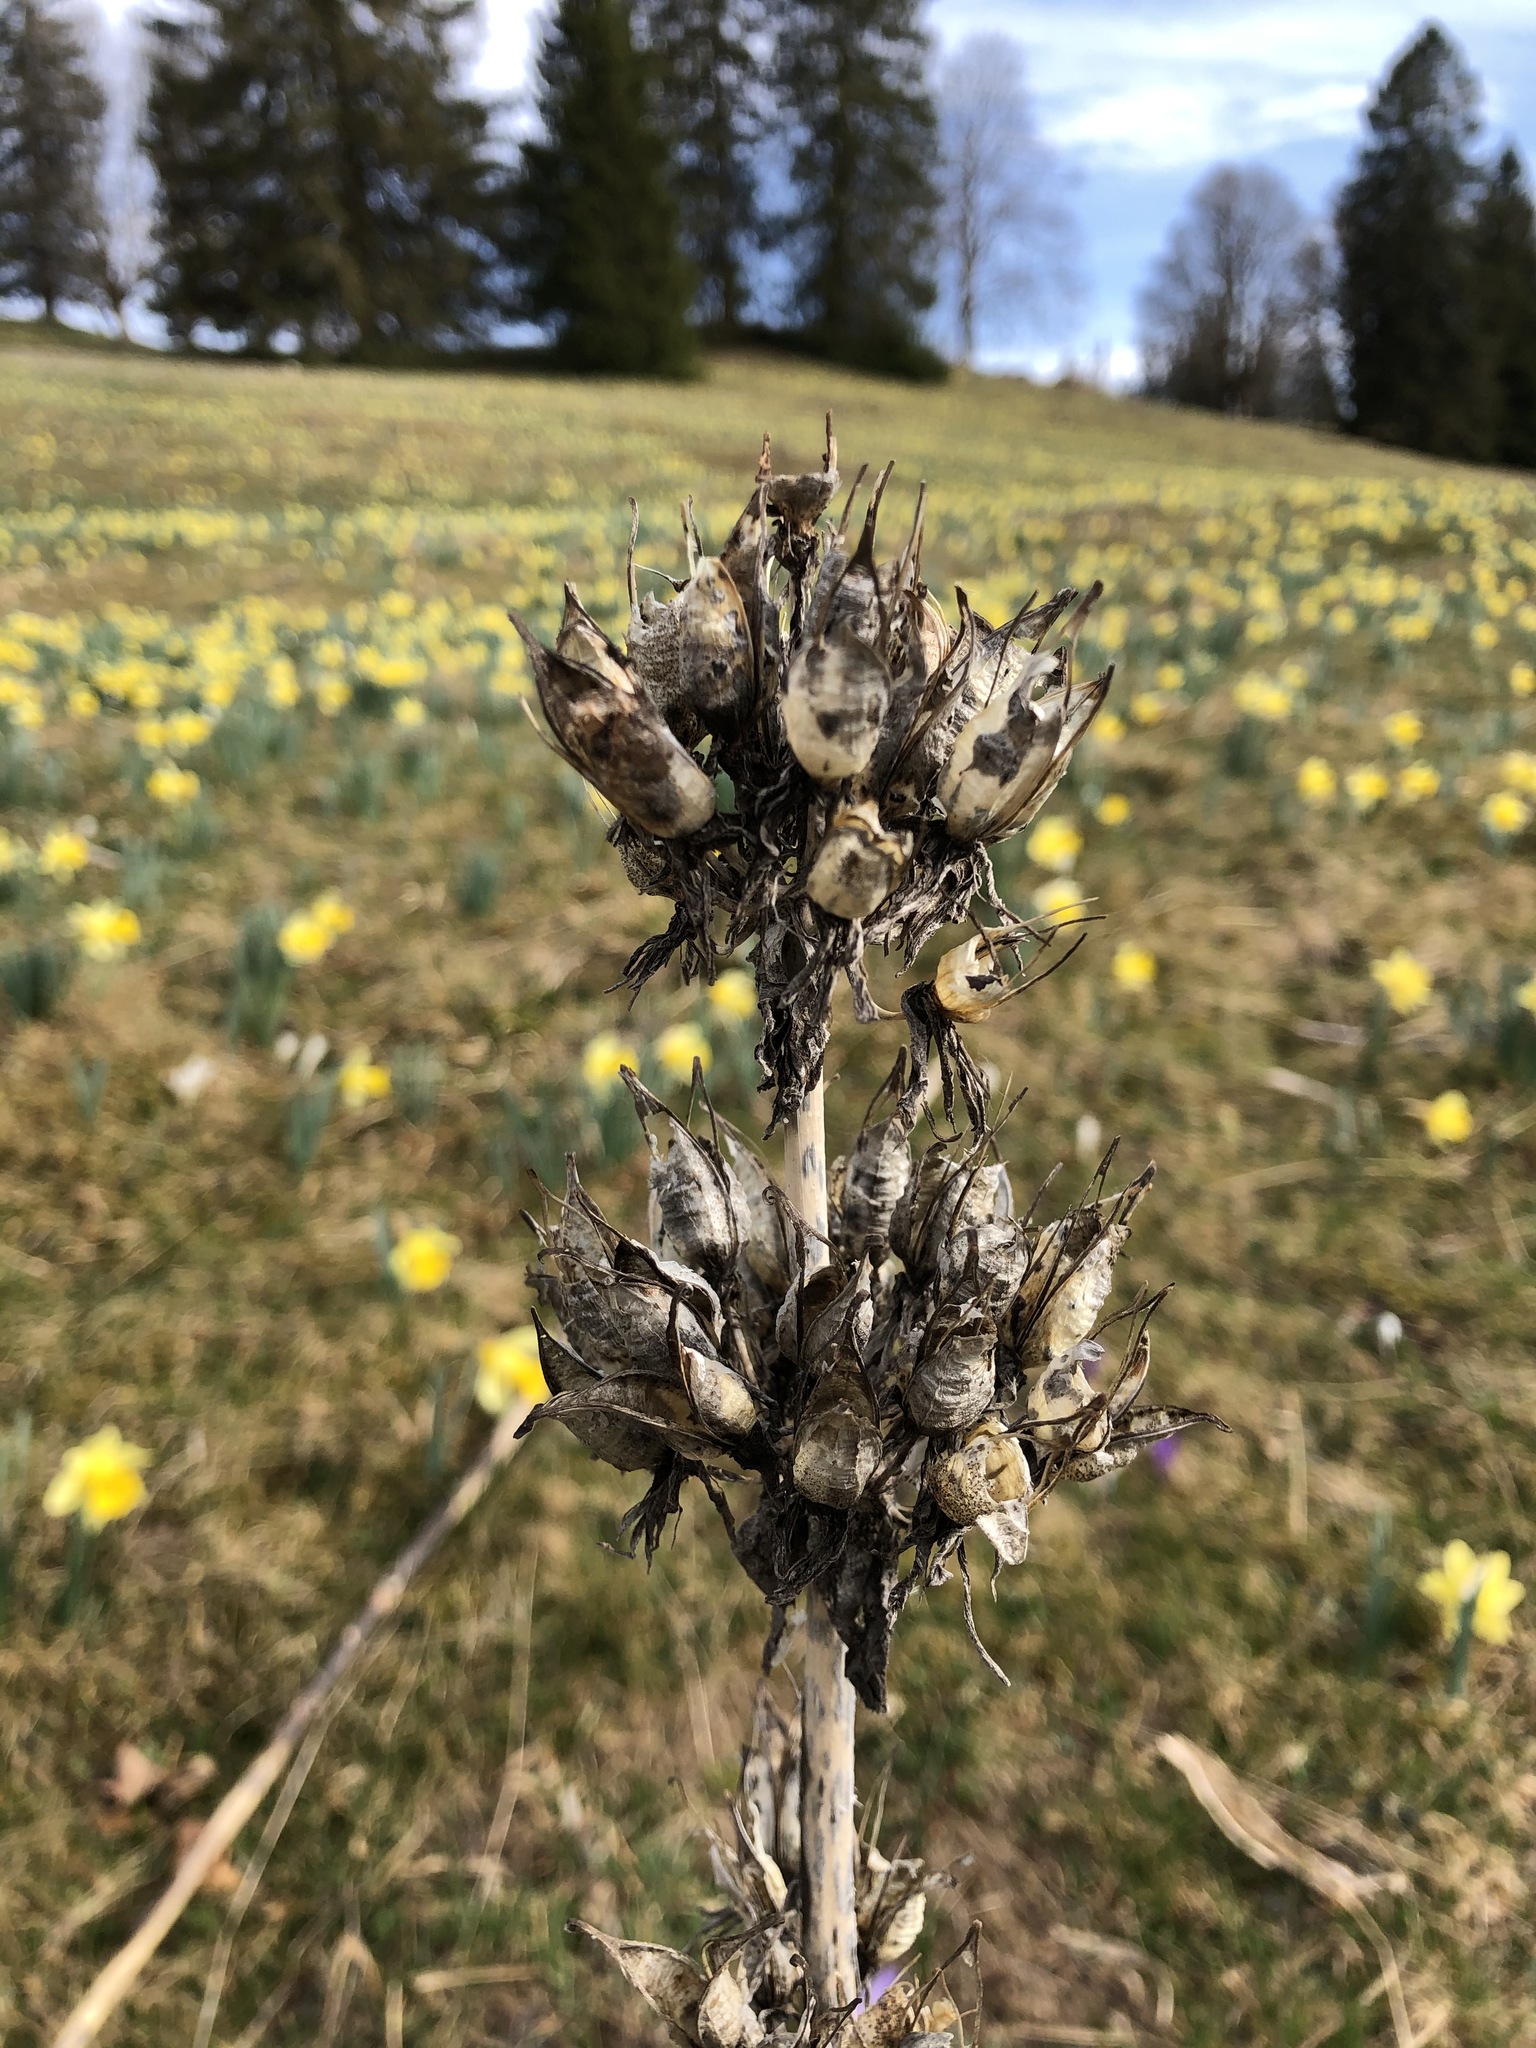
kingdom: Plantae
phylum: Tracheophyta
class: Magnoliopsida
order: Gentianales
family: Gentianaceae
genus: Gentiana
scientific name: Gentiana lutea
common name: Great yellow gentian
